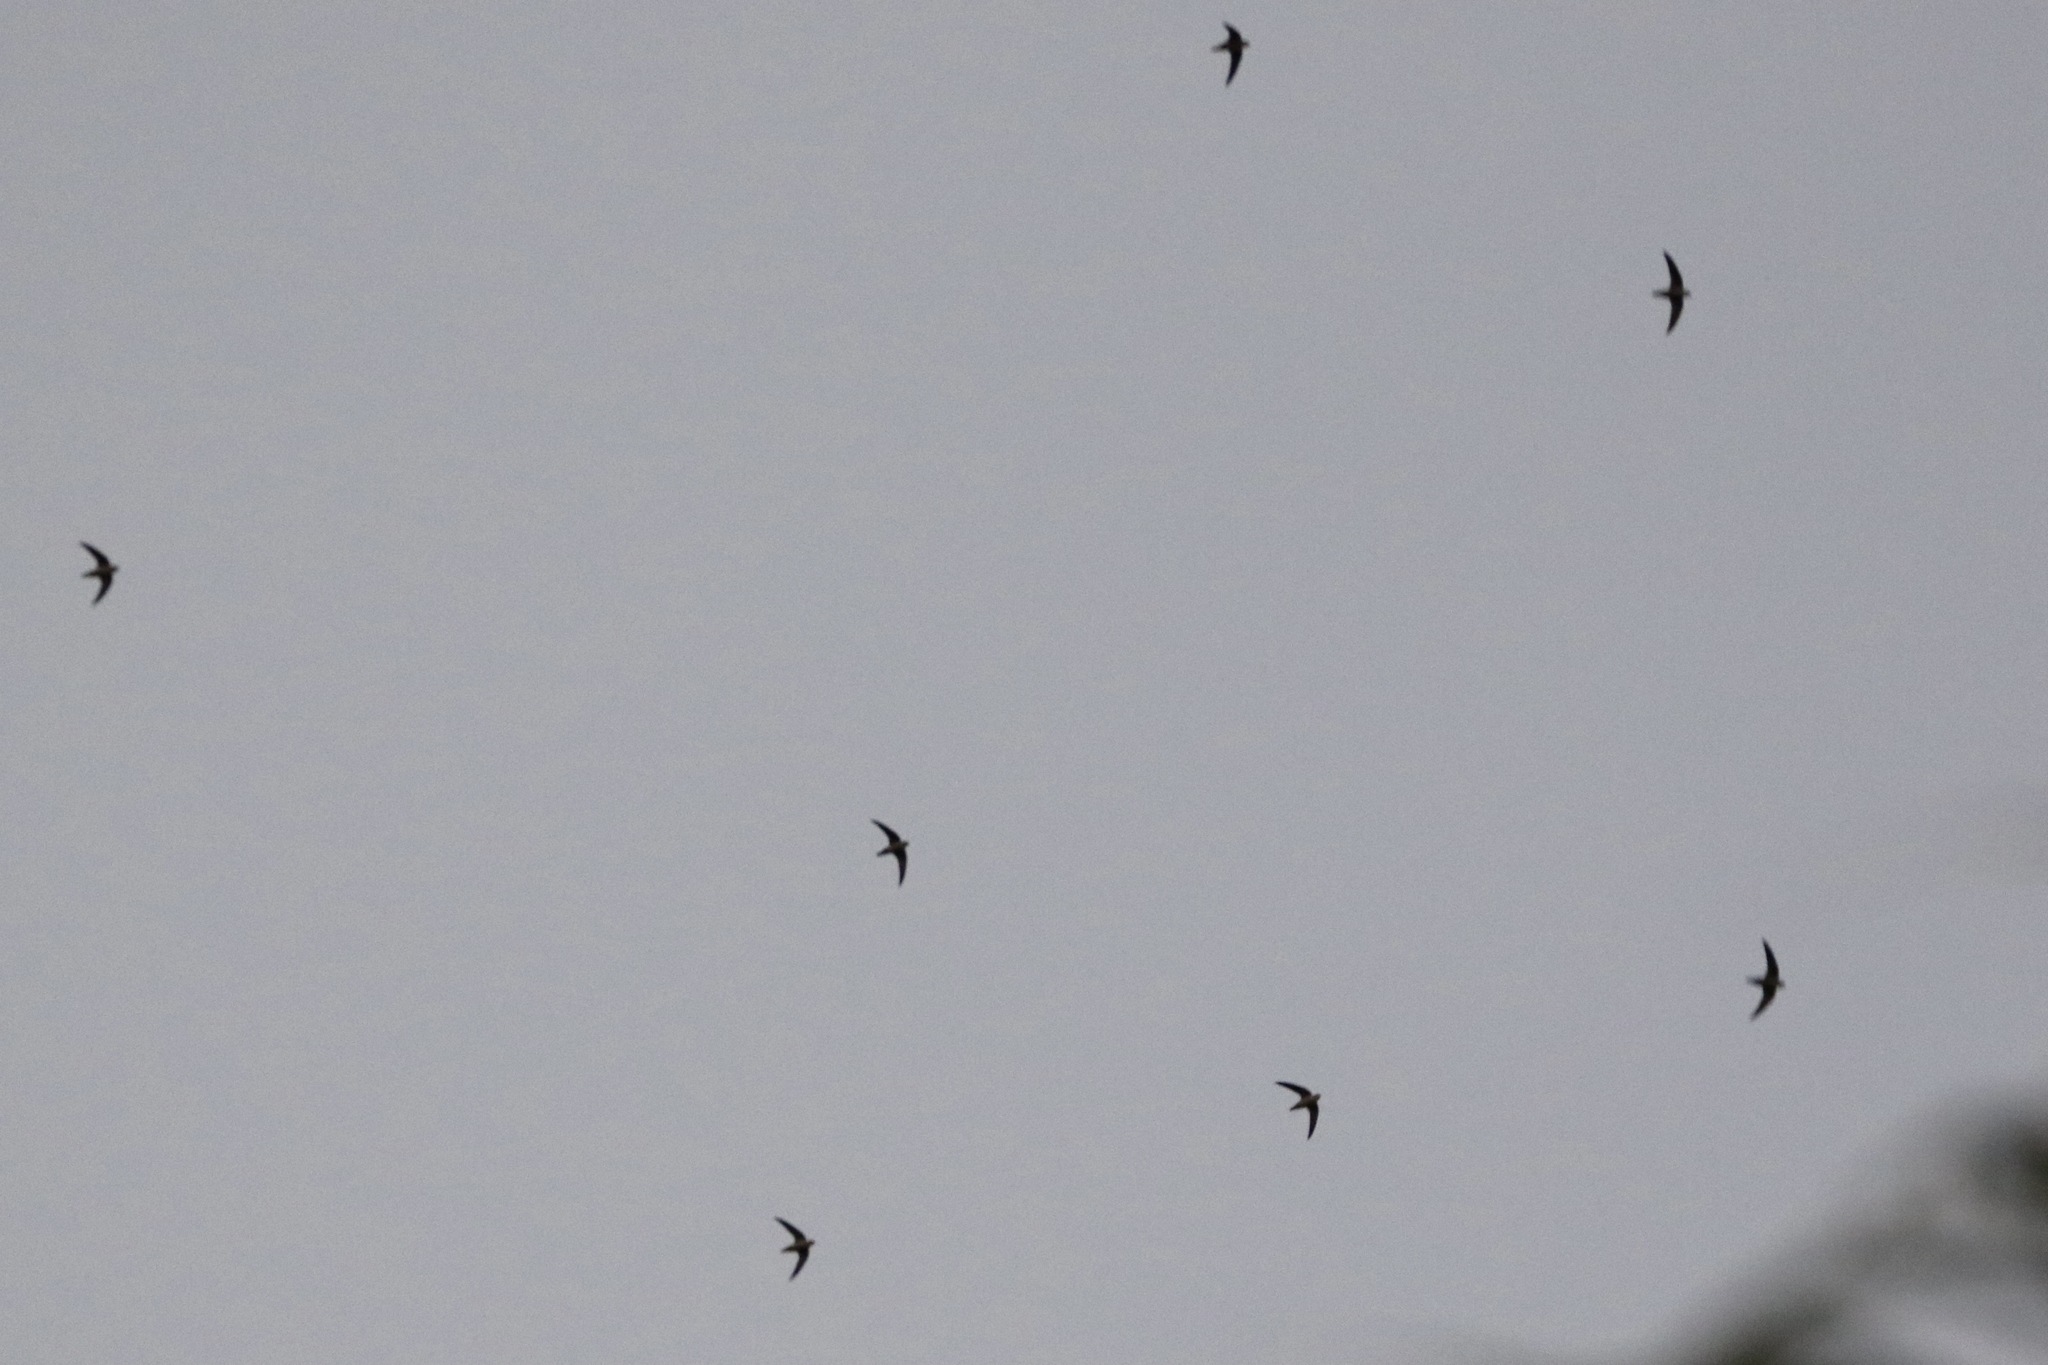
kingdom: Animalia
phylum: Chordata
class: Aves
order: Apodiformes
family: Apodidae
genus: Chaetura
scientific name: Chaetura vauxi
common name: Vaux's swift
